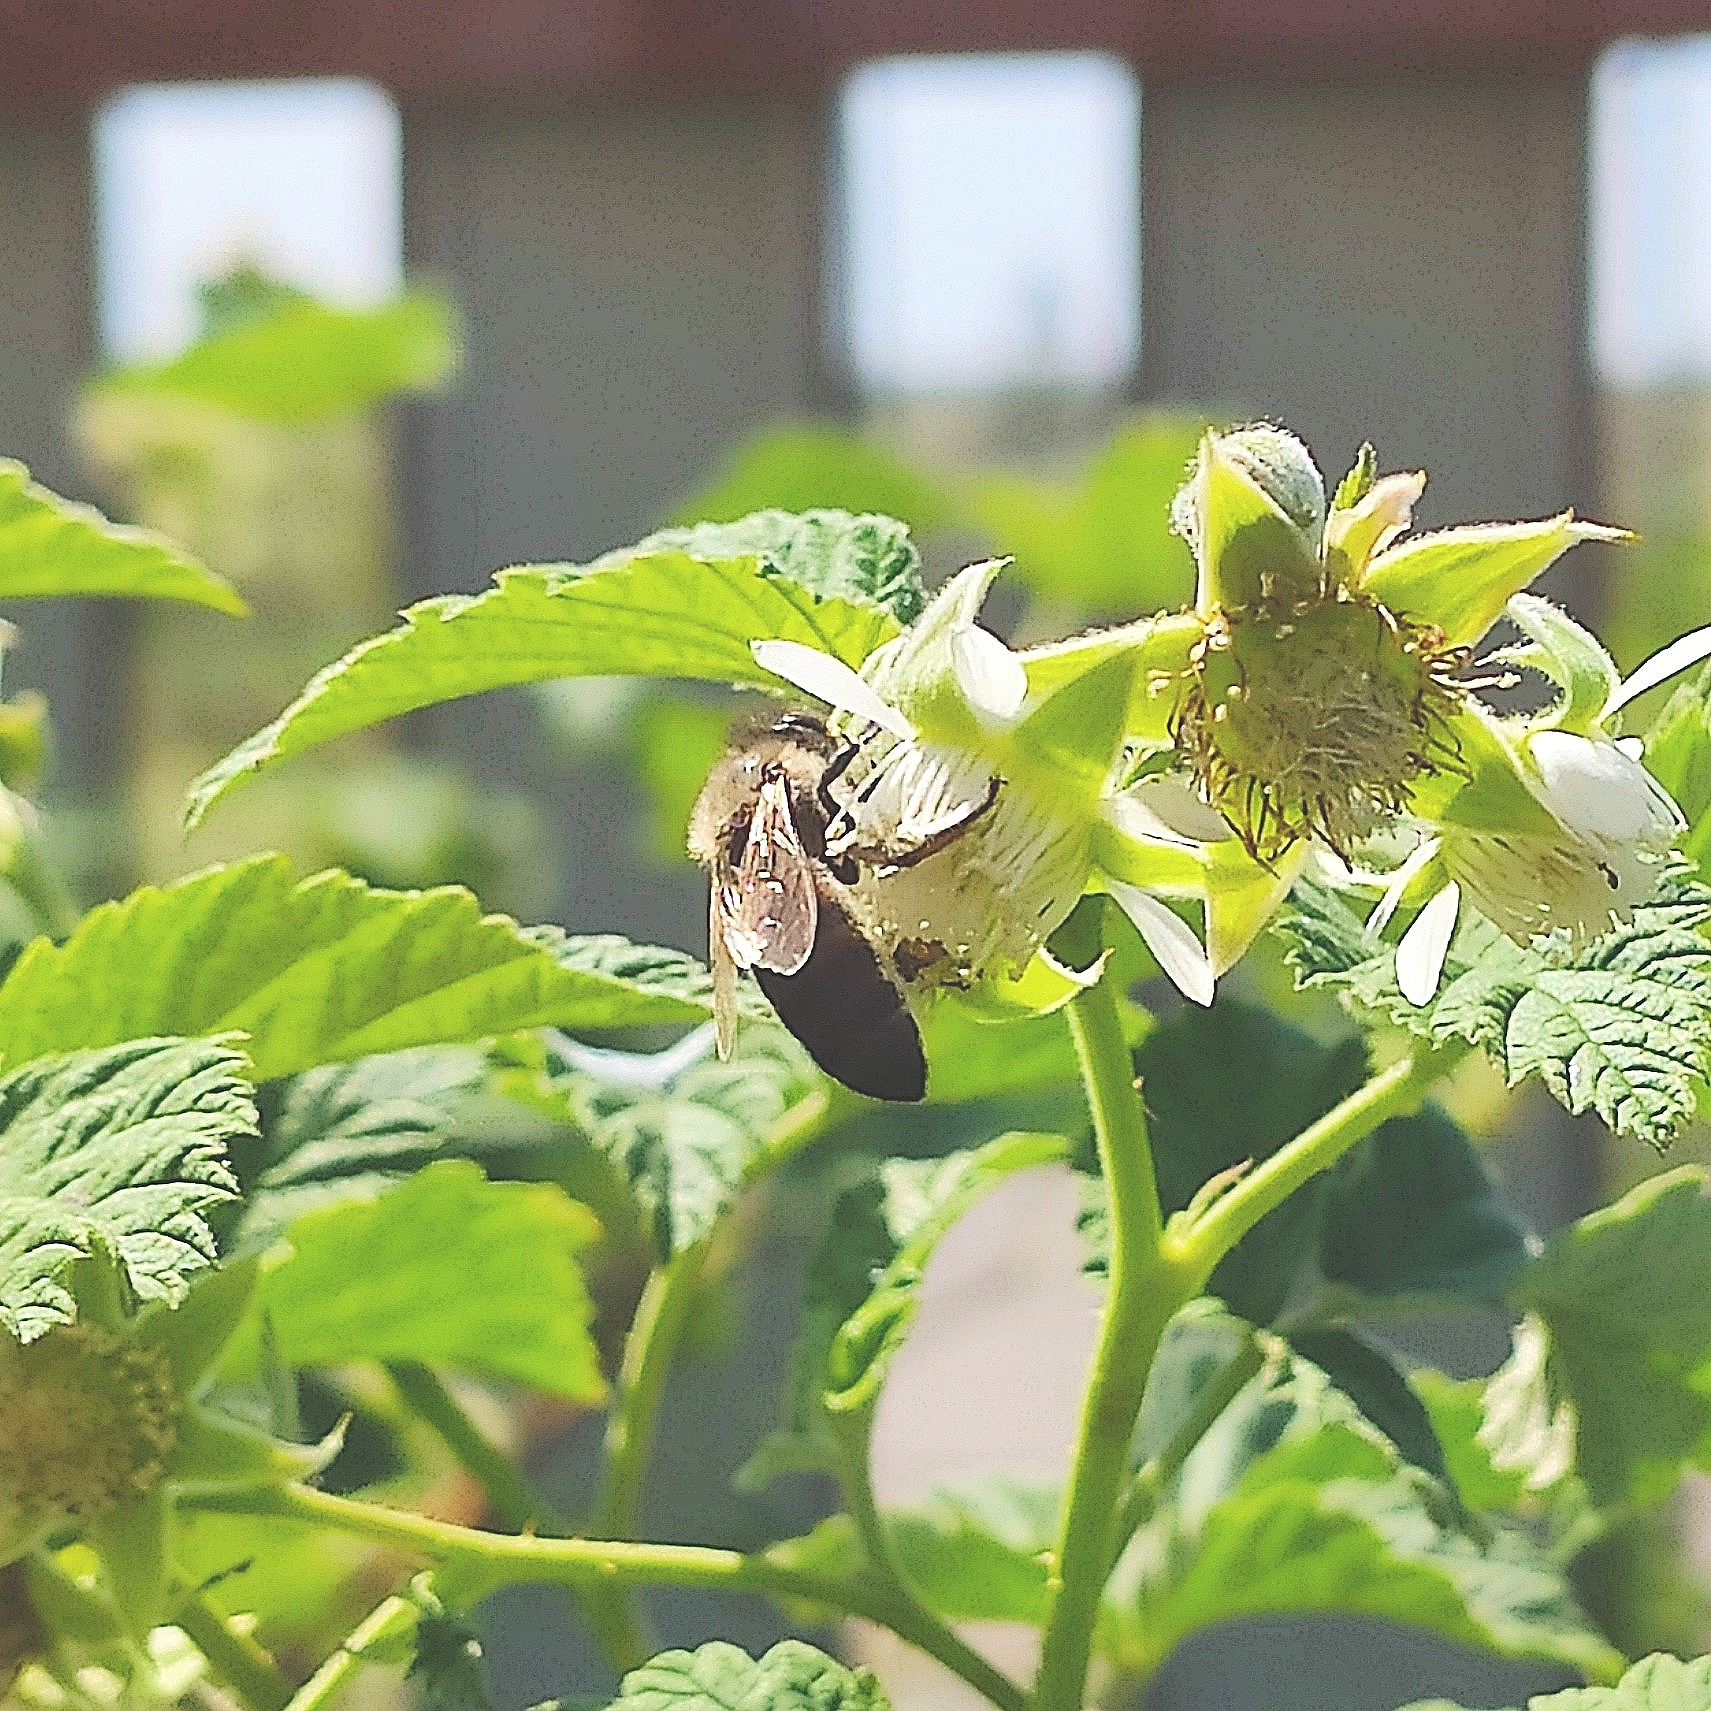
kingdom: Animalia
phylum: Arthropoda
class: Insecta
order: Hymenoptera
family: Apidae
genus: Apis
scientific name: Apis mellifera
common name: Honey bee
